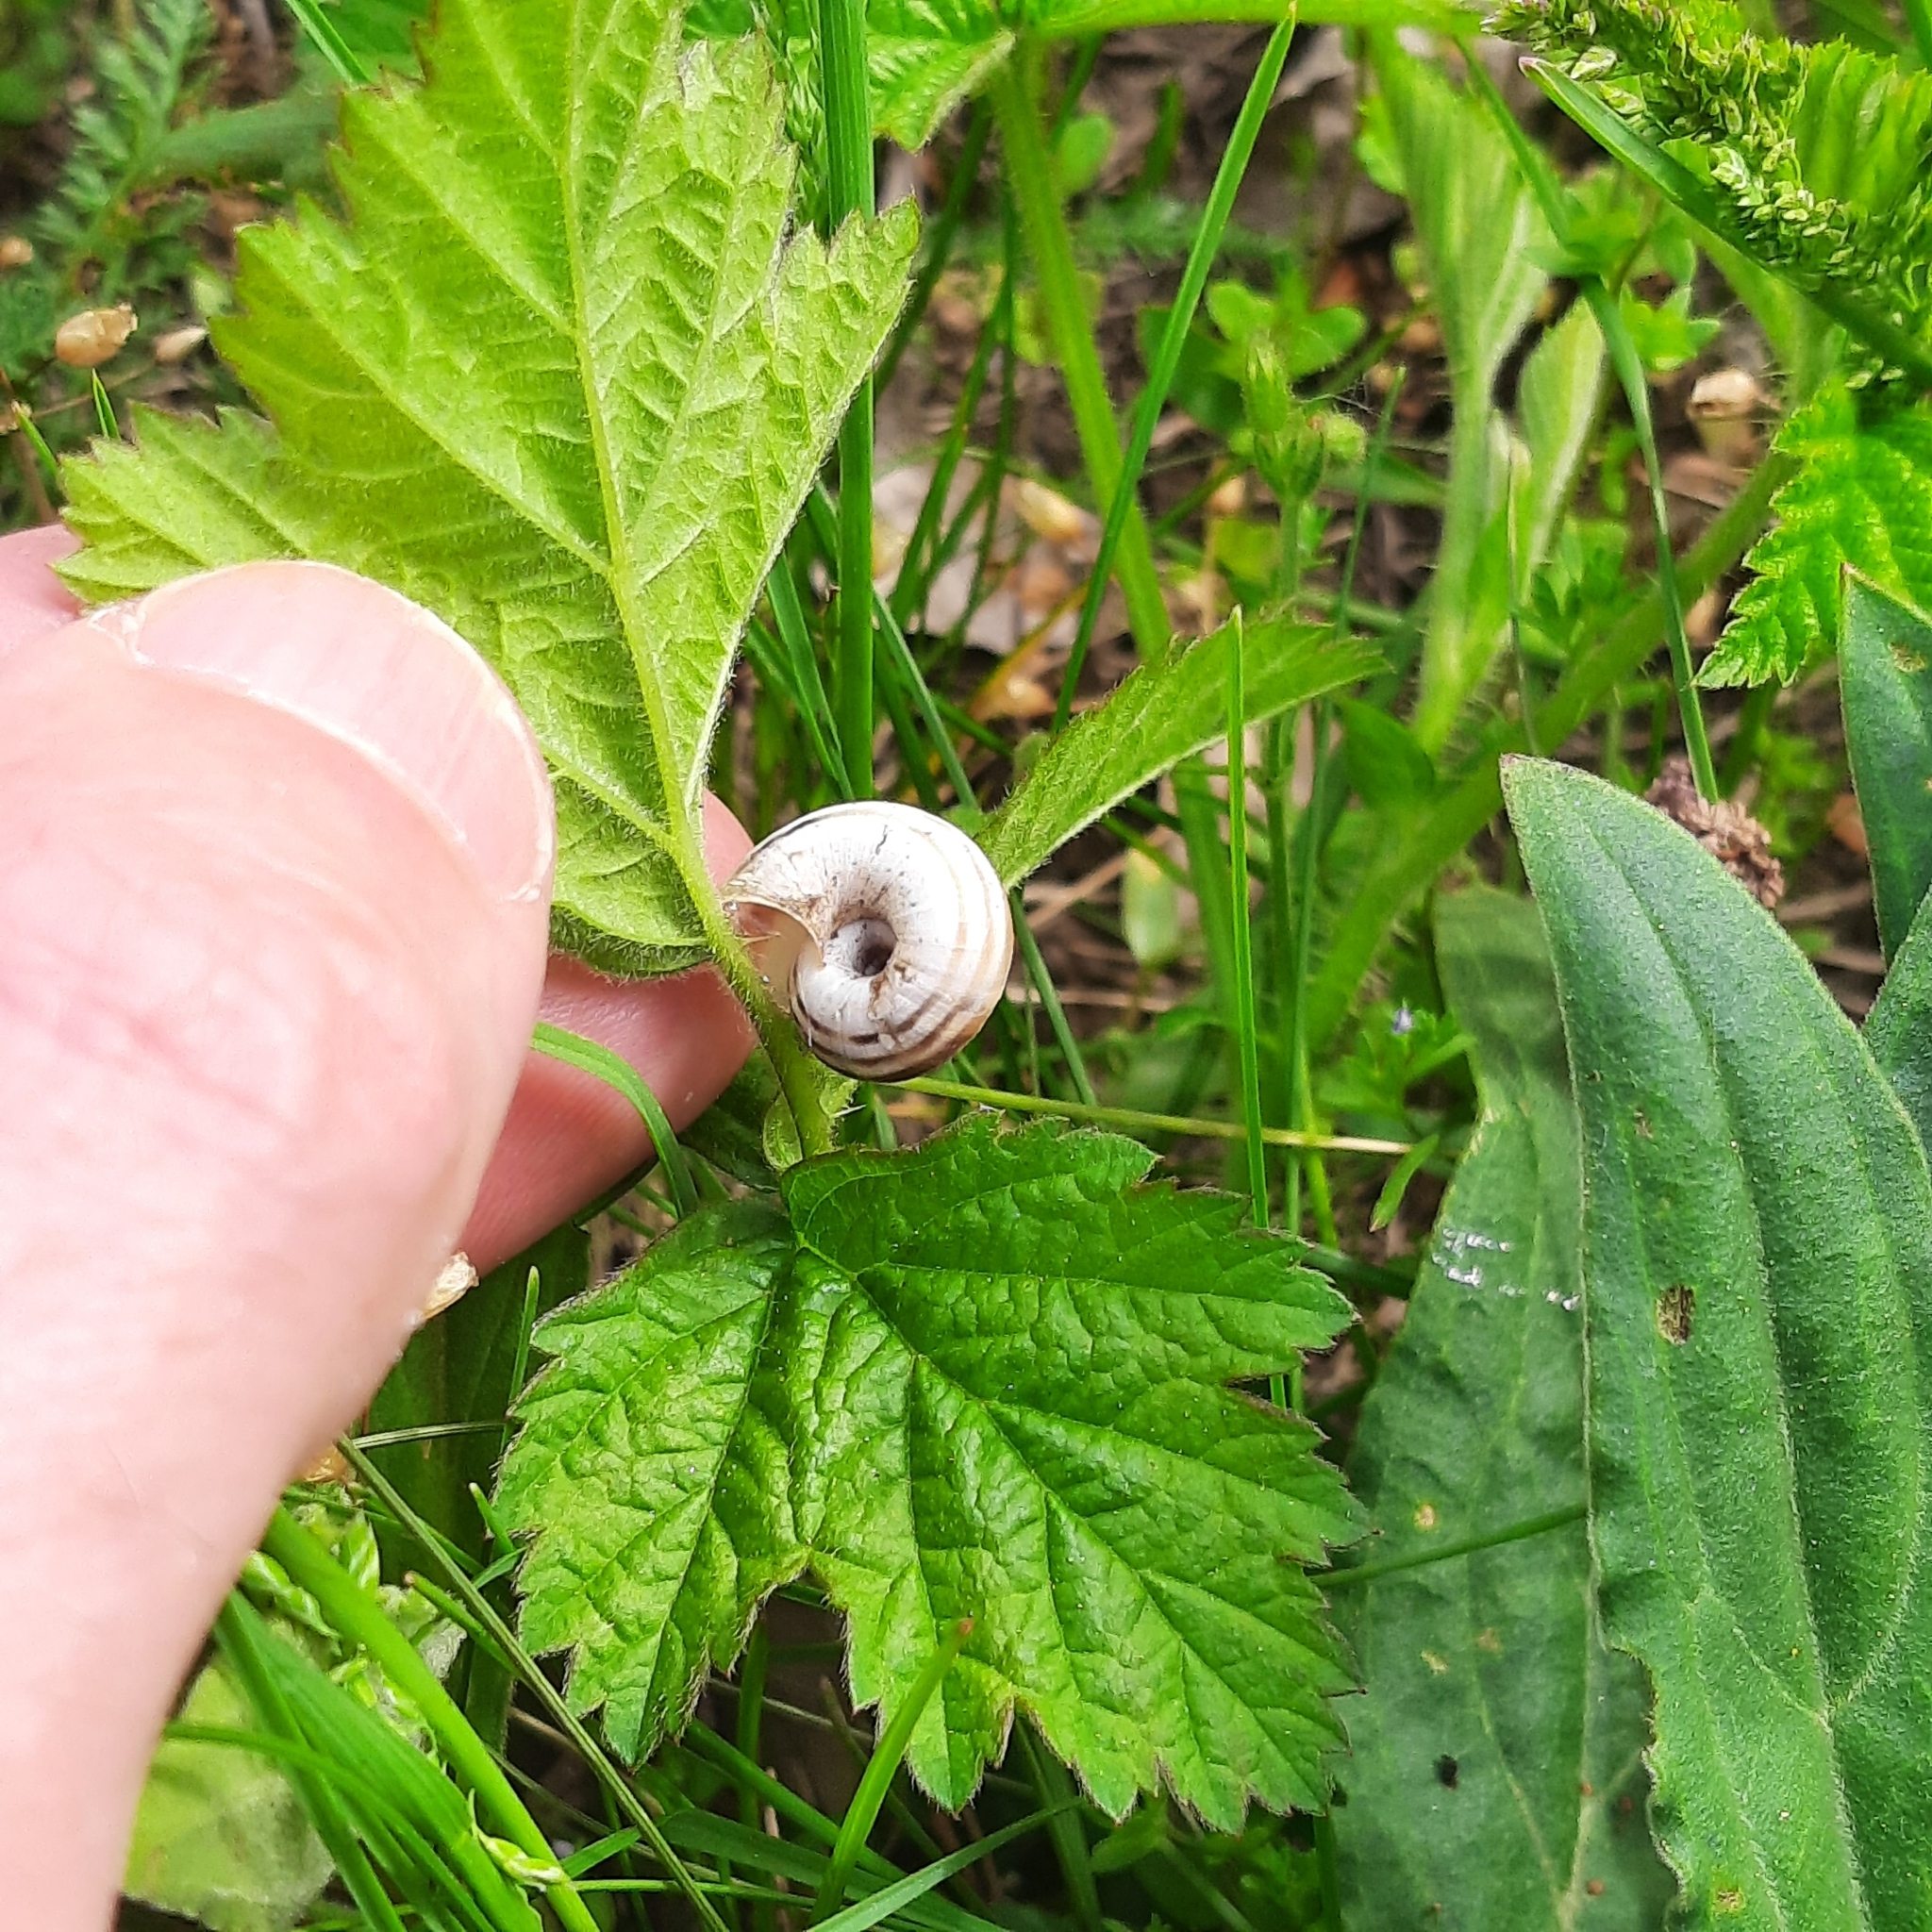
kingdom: Animalia
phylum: Mollusca
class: Gastropoda
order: Stylommatophora
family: Geomitridae
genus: Xerolenta
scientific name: Xerolenta obvia
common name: White heath snail
